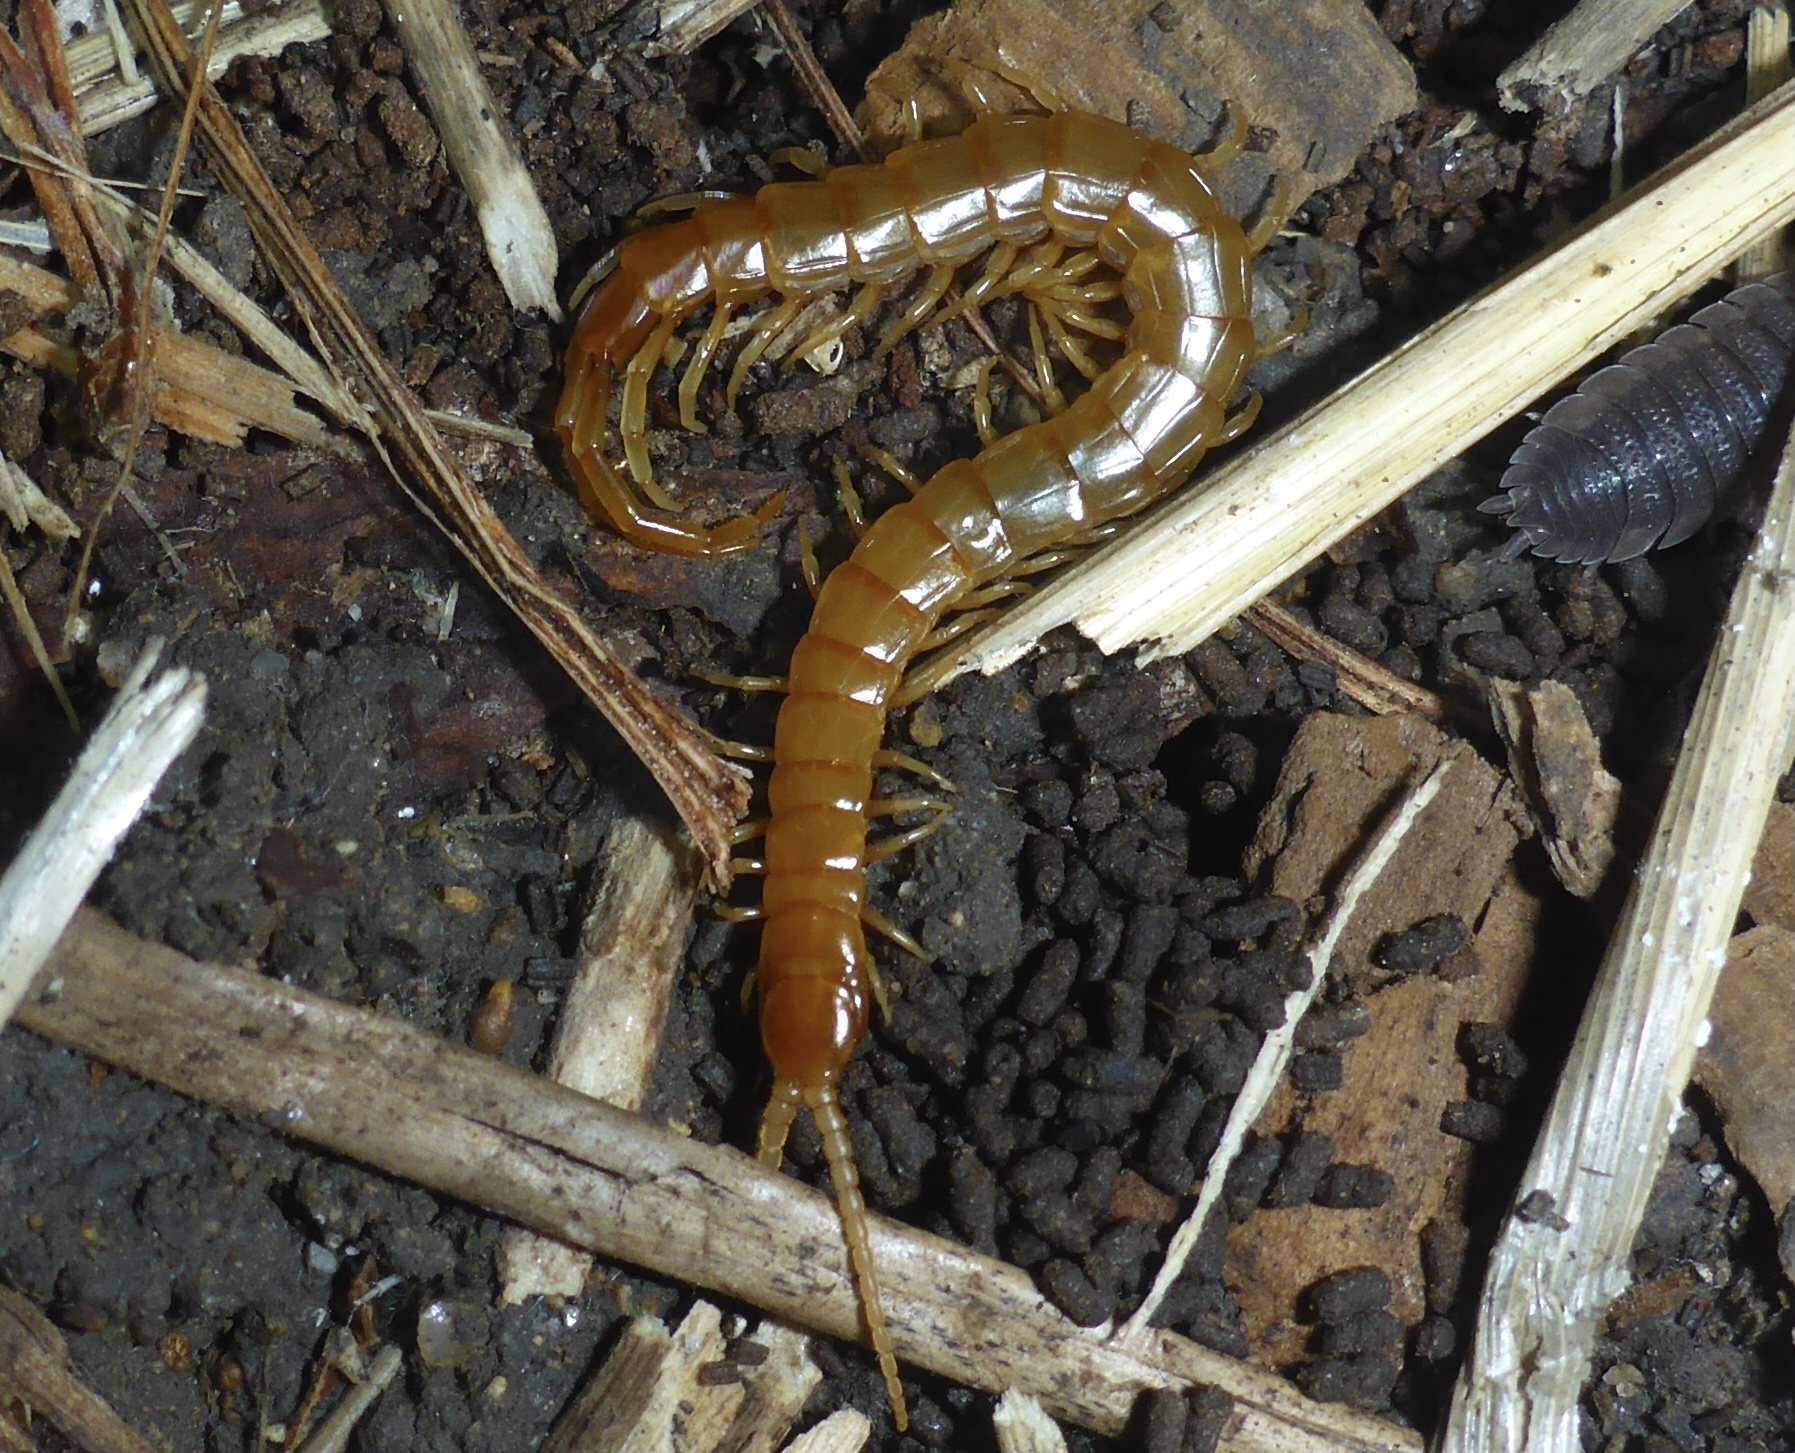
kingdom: Animalia
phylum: Arthropoda
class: Chilopoda
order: Scolopendromorpha
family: Scolopocryptopidae
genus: Scolopocryptops
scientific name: Scolopocryptops gracilis
